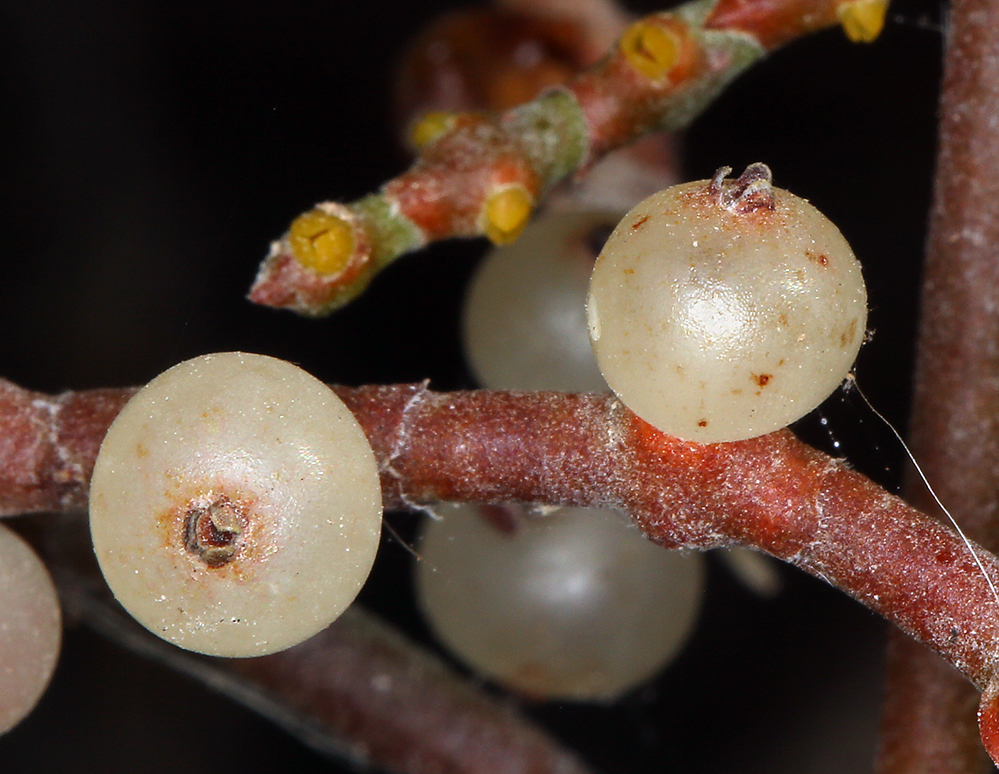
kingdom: Plantae
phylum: Tracheophyta
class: Magnoliopsida
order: Santalales
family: Viscaceae
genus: Phoradendron
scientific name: Phoradendron californicum
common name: Acacia mistletoe
